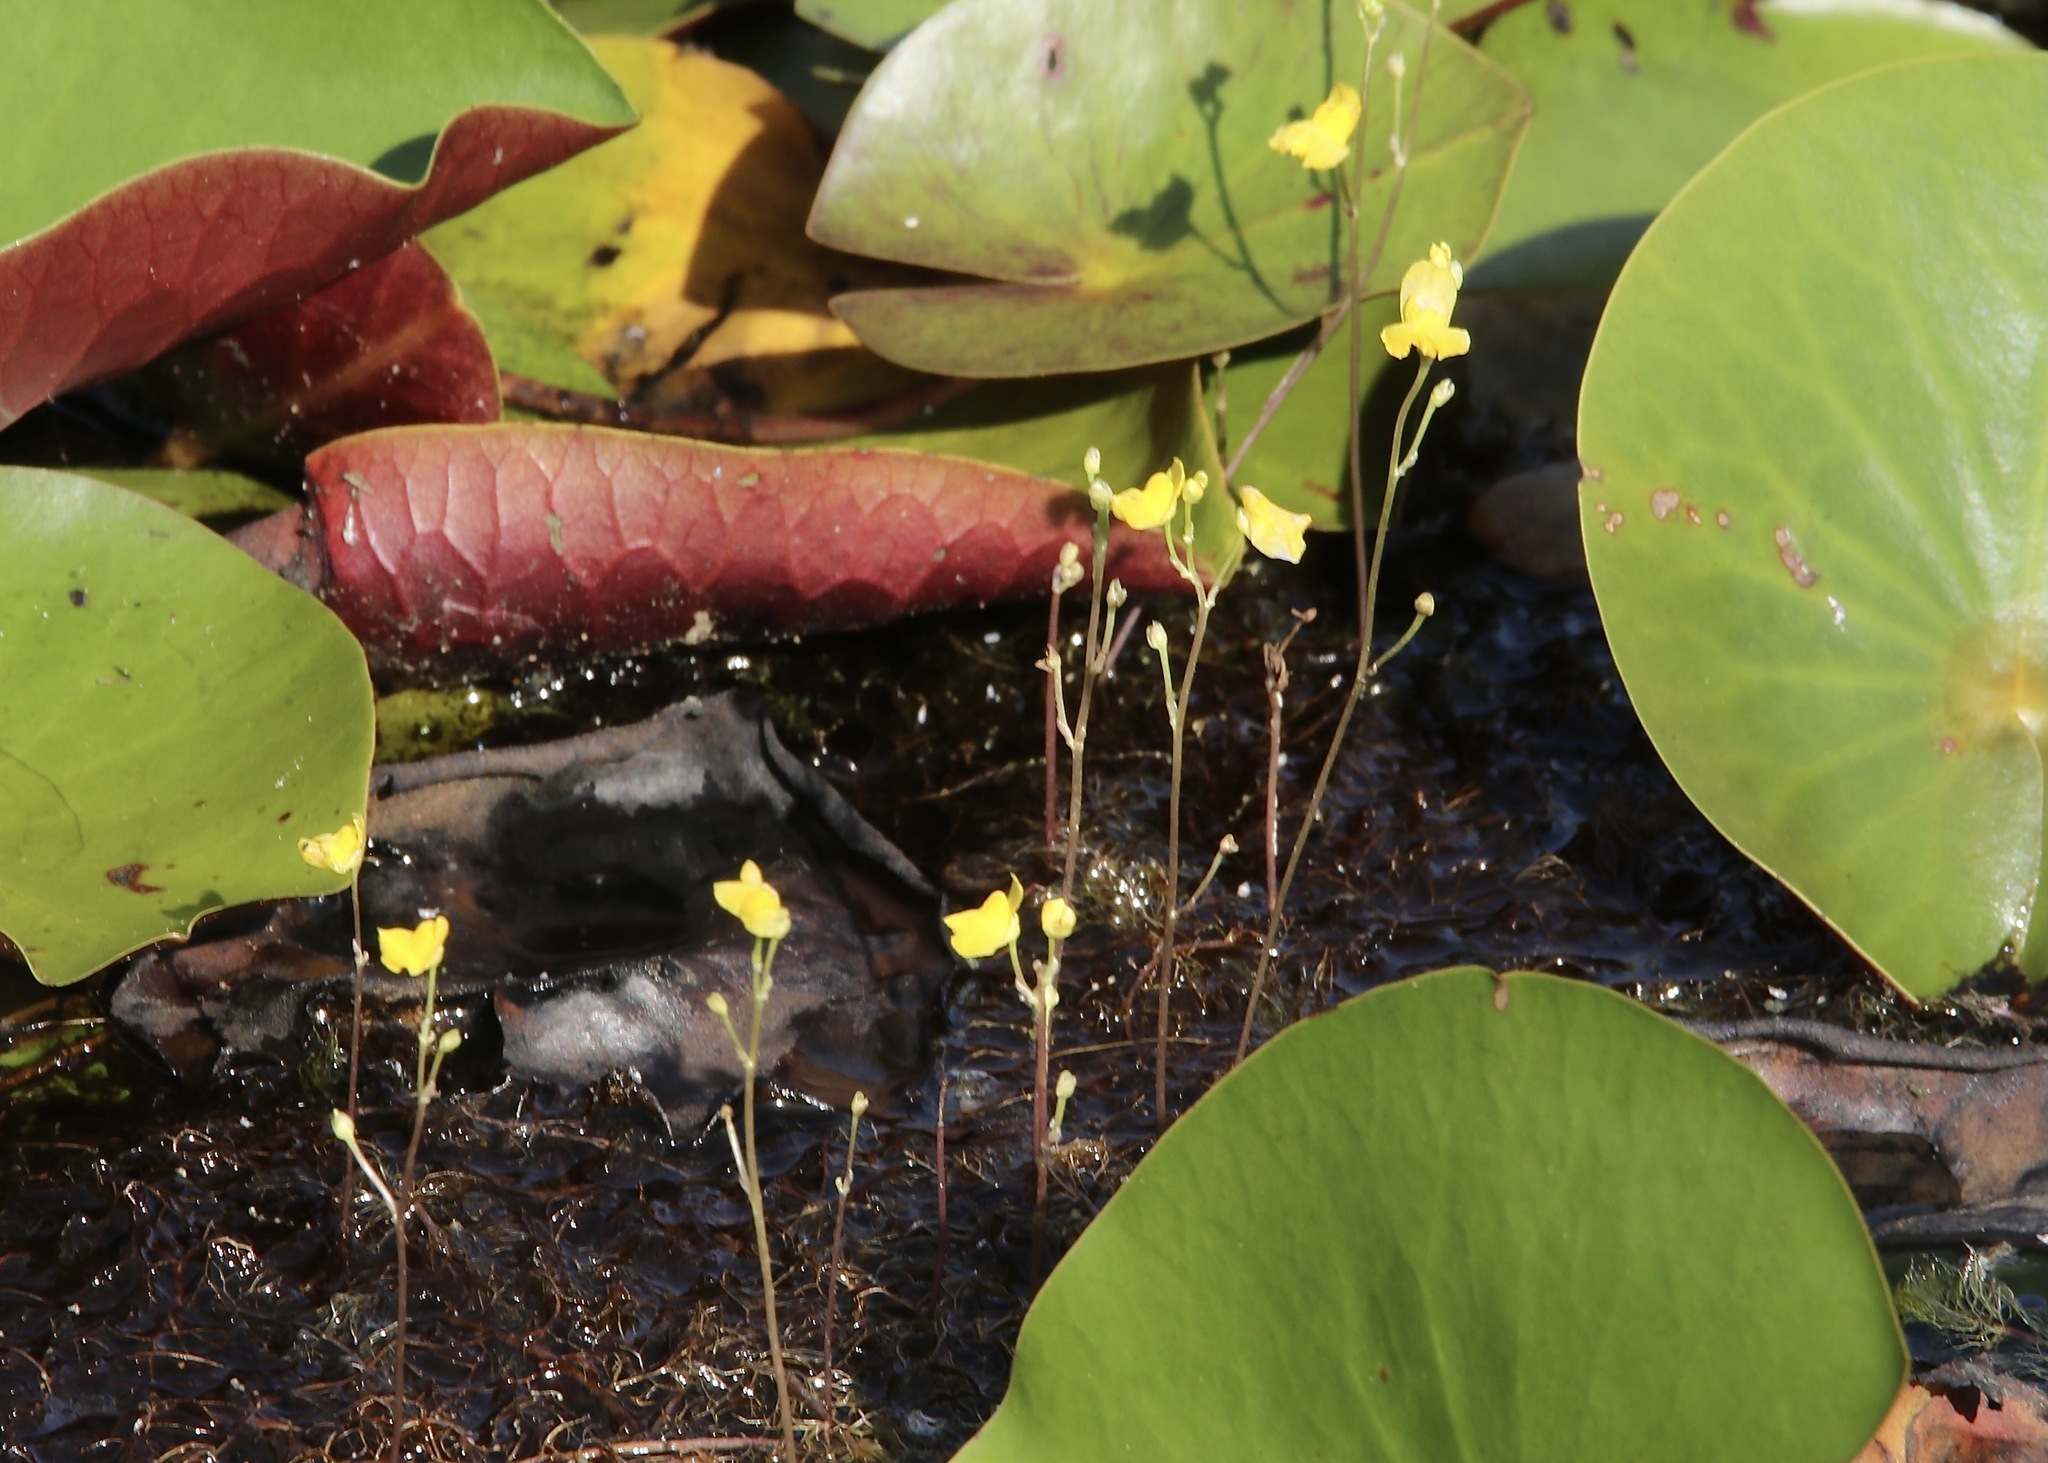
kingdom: Plantae
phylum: Tracheophyta
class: Magnoliopsida
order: Lamiales
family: Lentibulariaceae
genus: Utricularia
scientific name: Utricularia geminiscapa
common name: Hidden-fruit bladderwort
